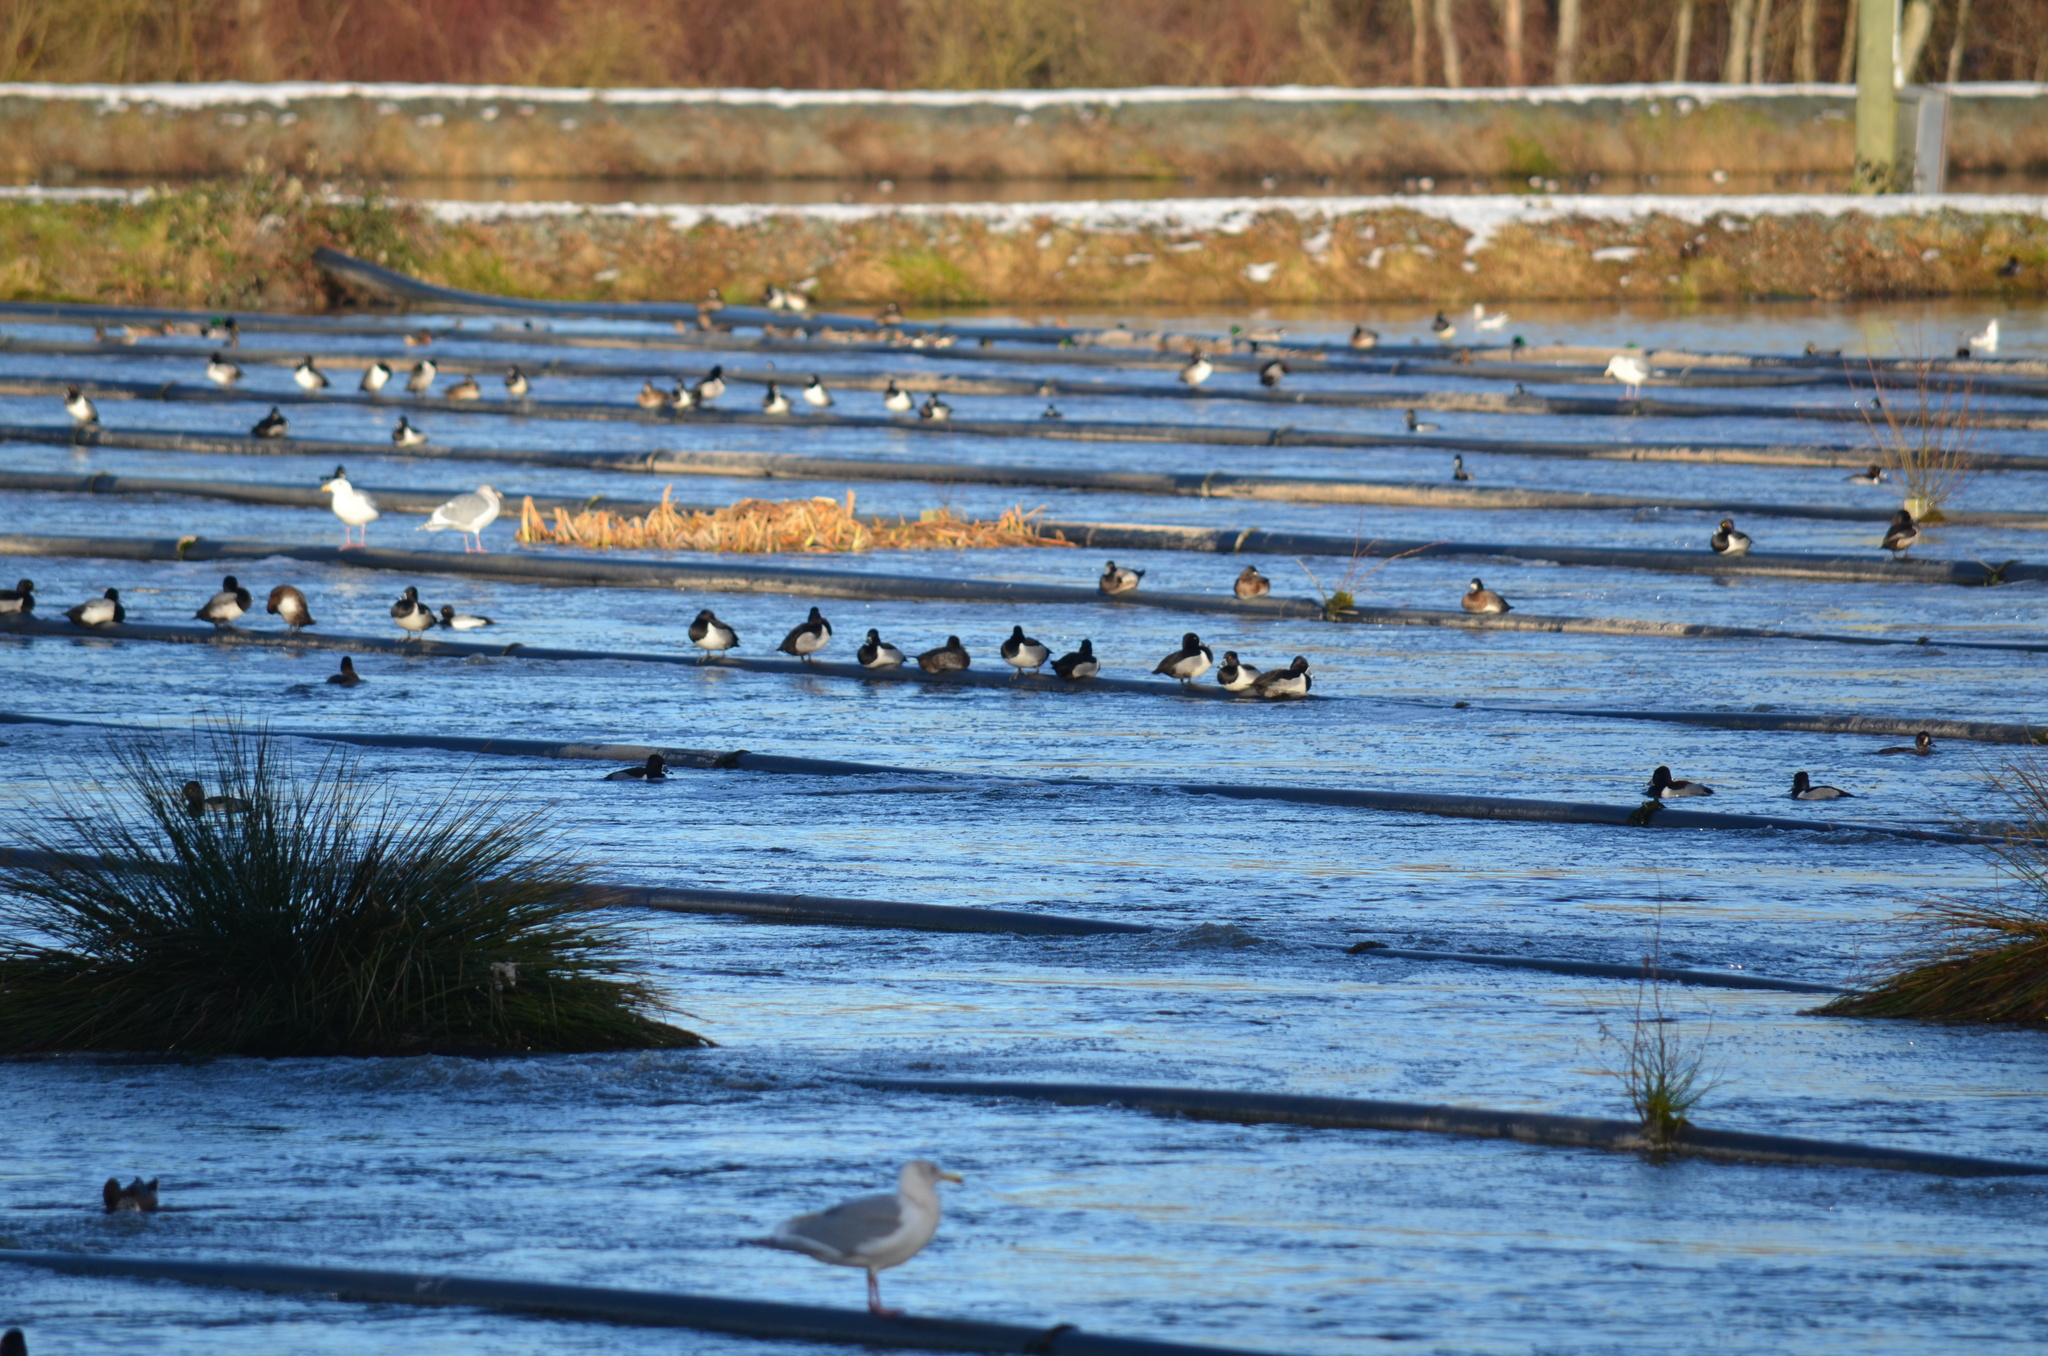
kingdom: Animalia
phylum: Chordata
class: Aves
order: Anseriformes
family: Anatidae
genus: Aythya
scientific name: Aythya collaris
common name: Ring-necked duck
